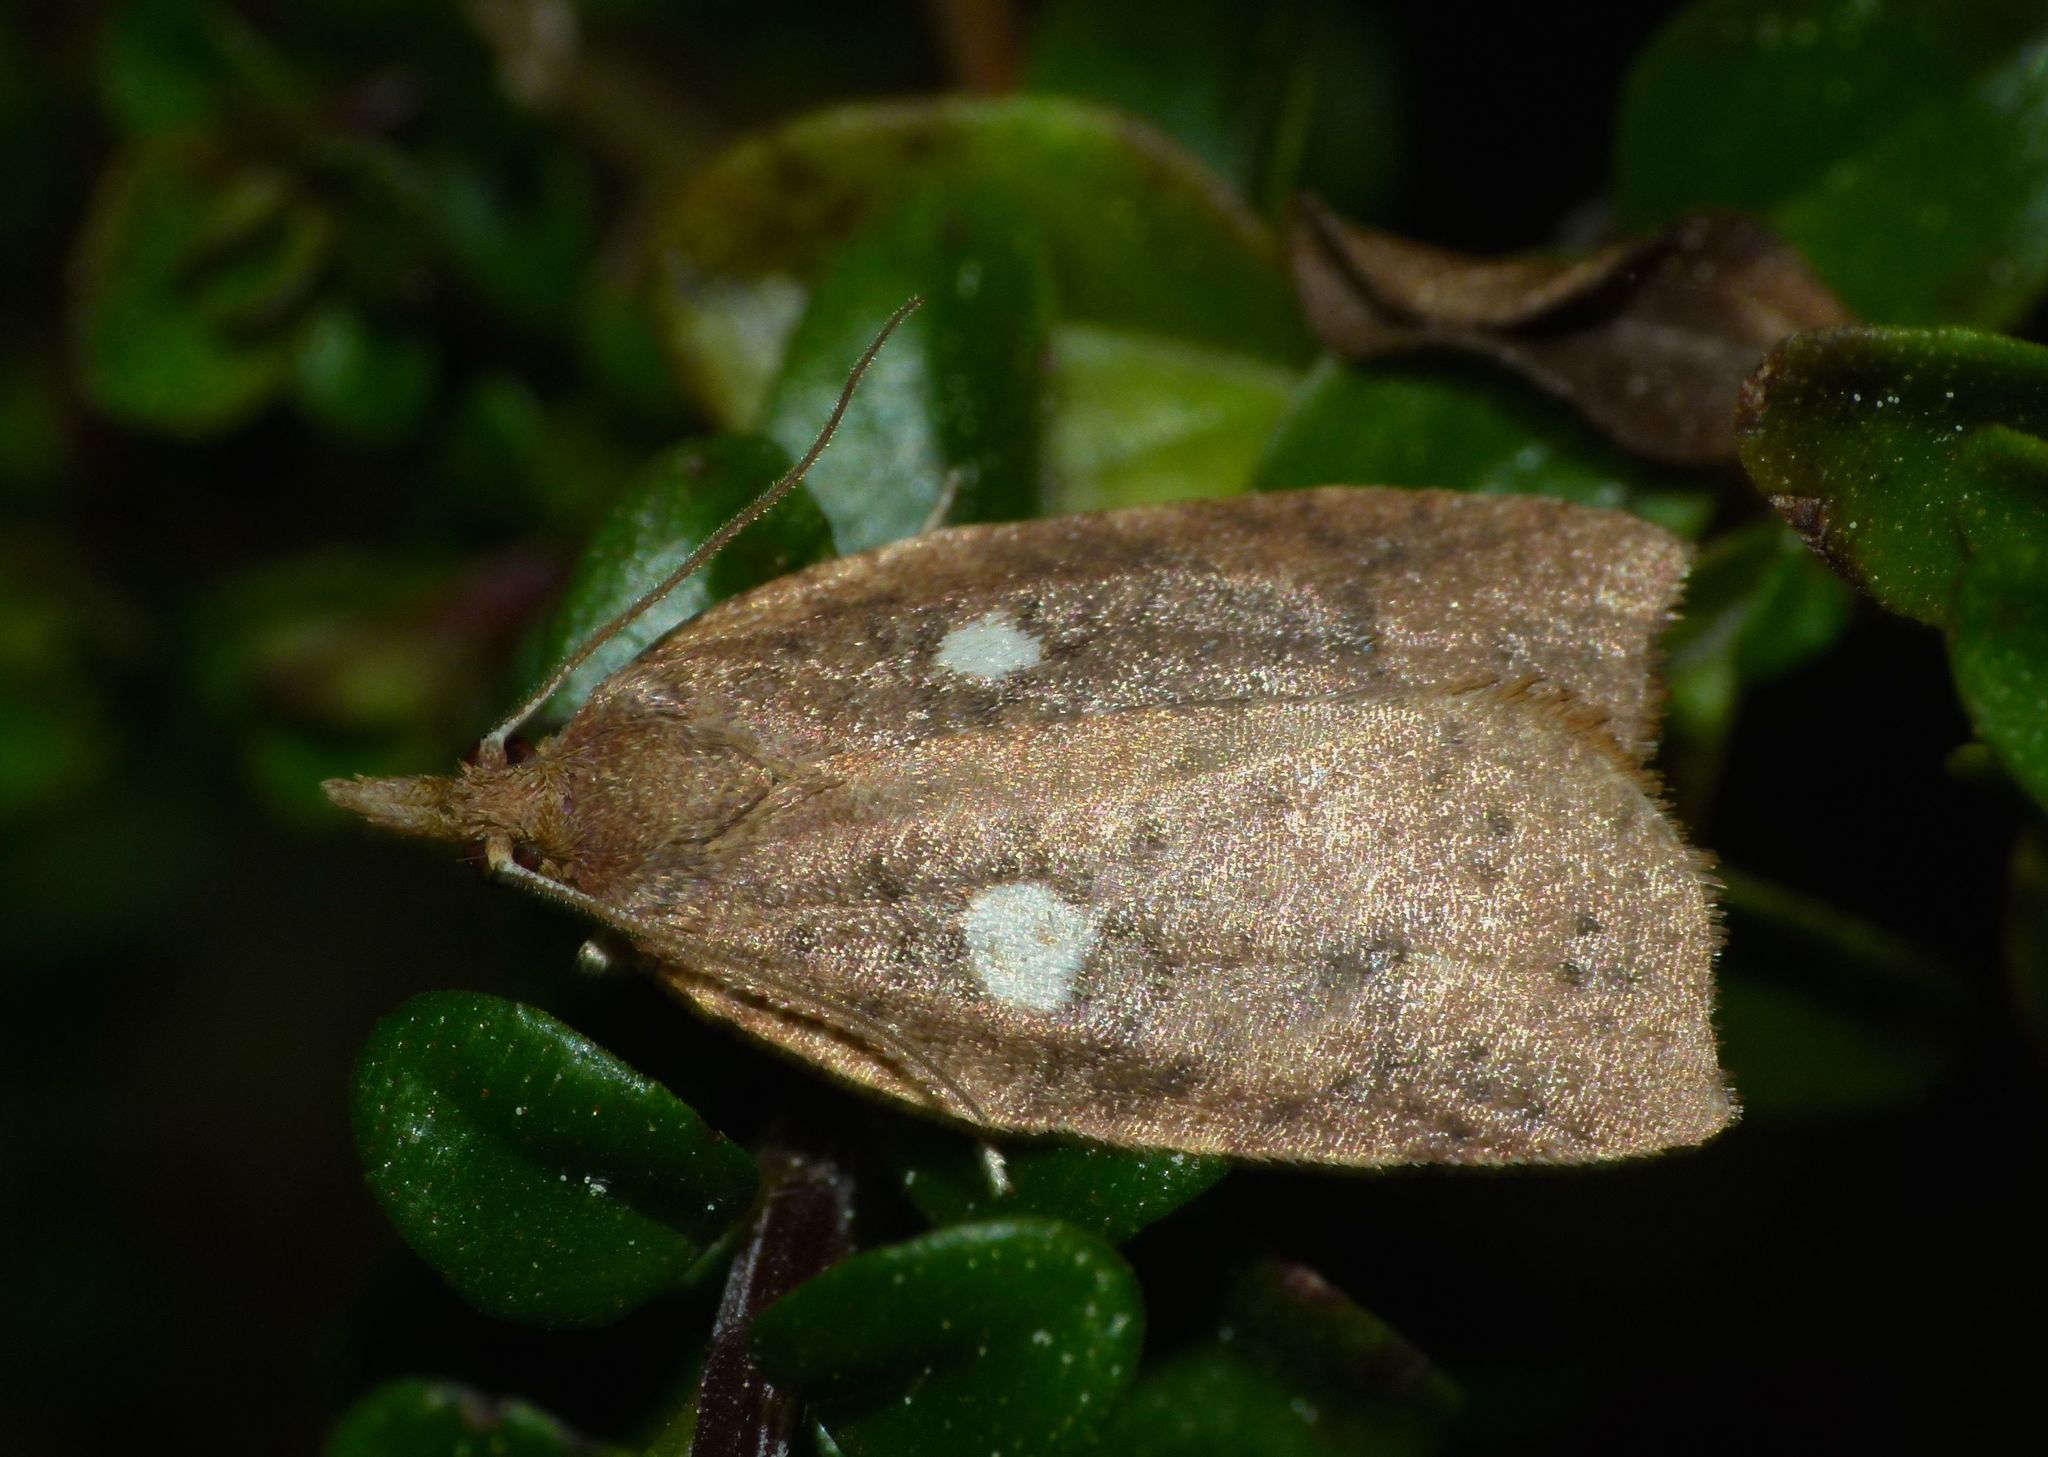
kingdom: Animalia
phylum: Arthropoda
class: Insecta
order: Lepidoptera
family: Tortricidae
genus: Planotortrix
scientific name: Planotortrix excessana
